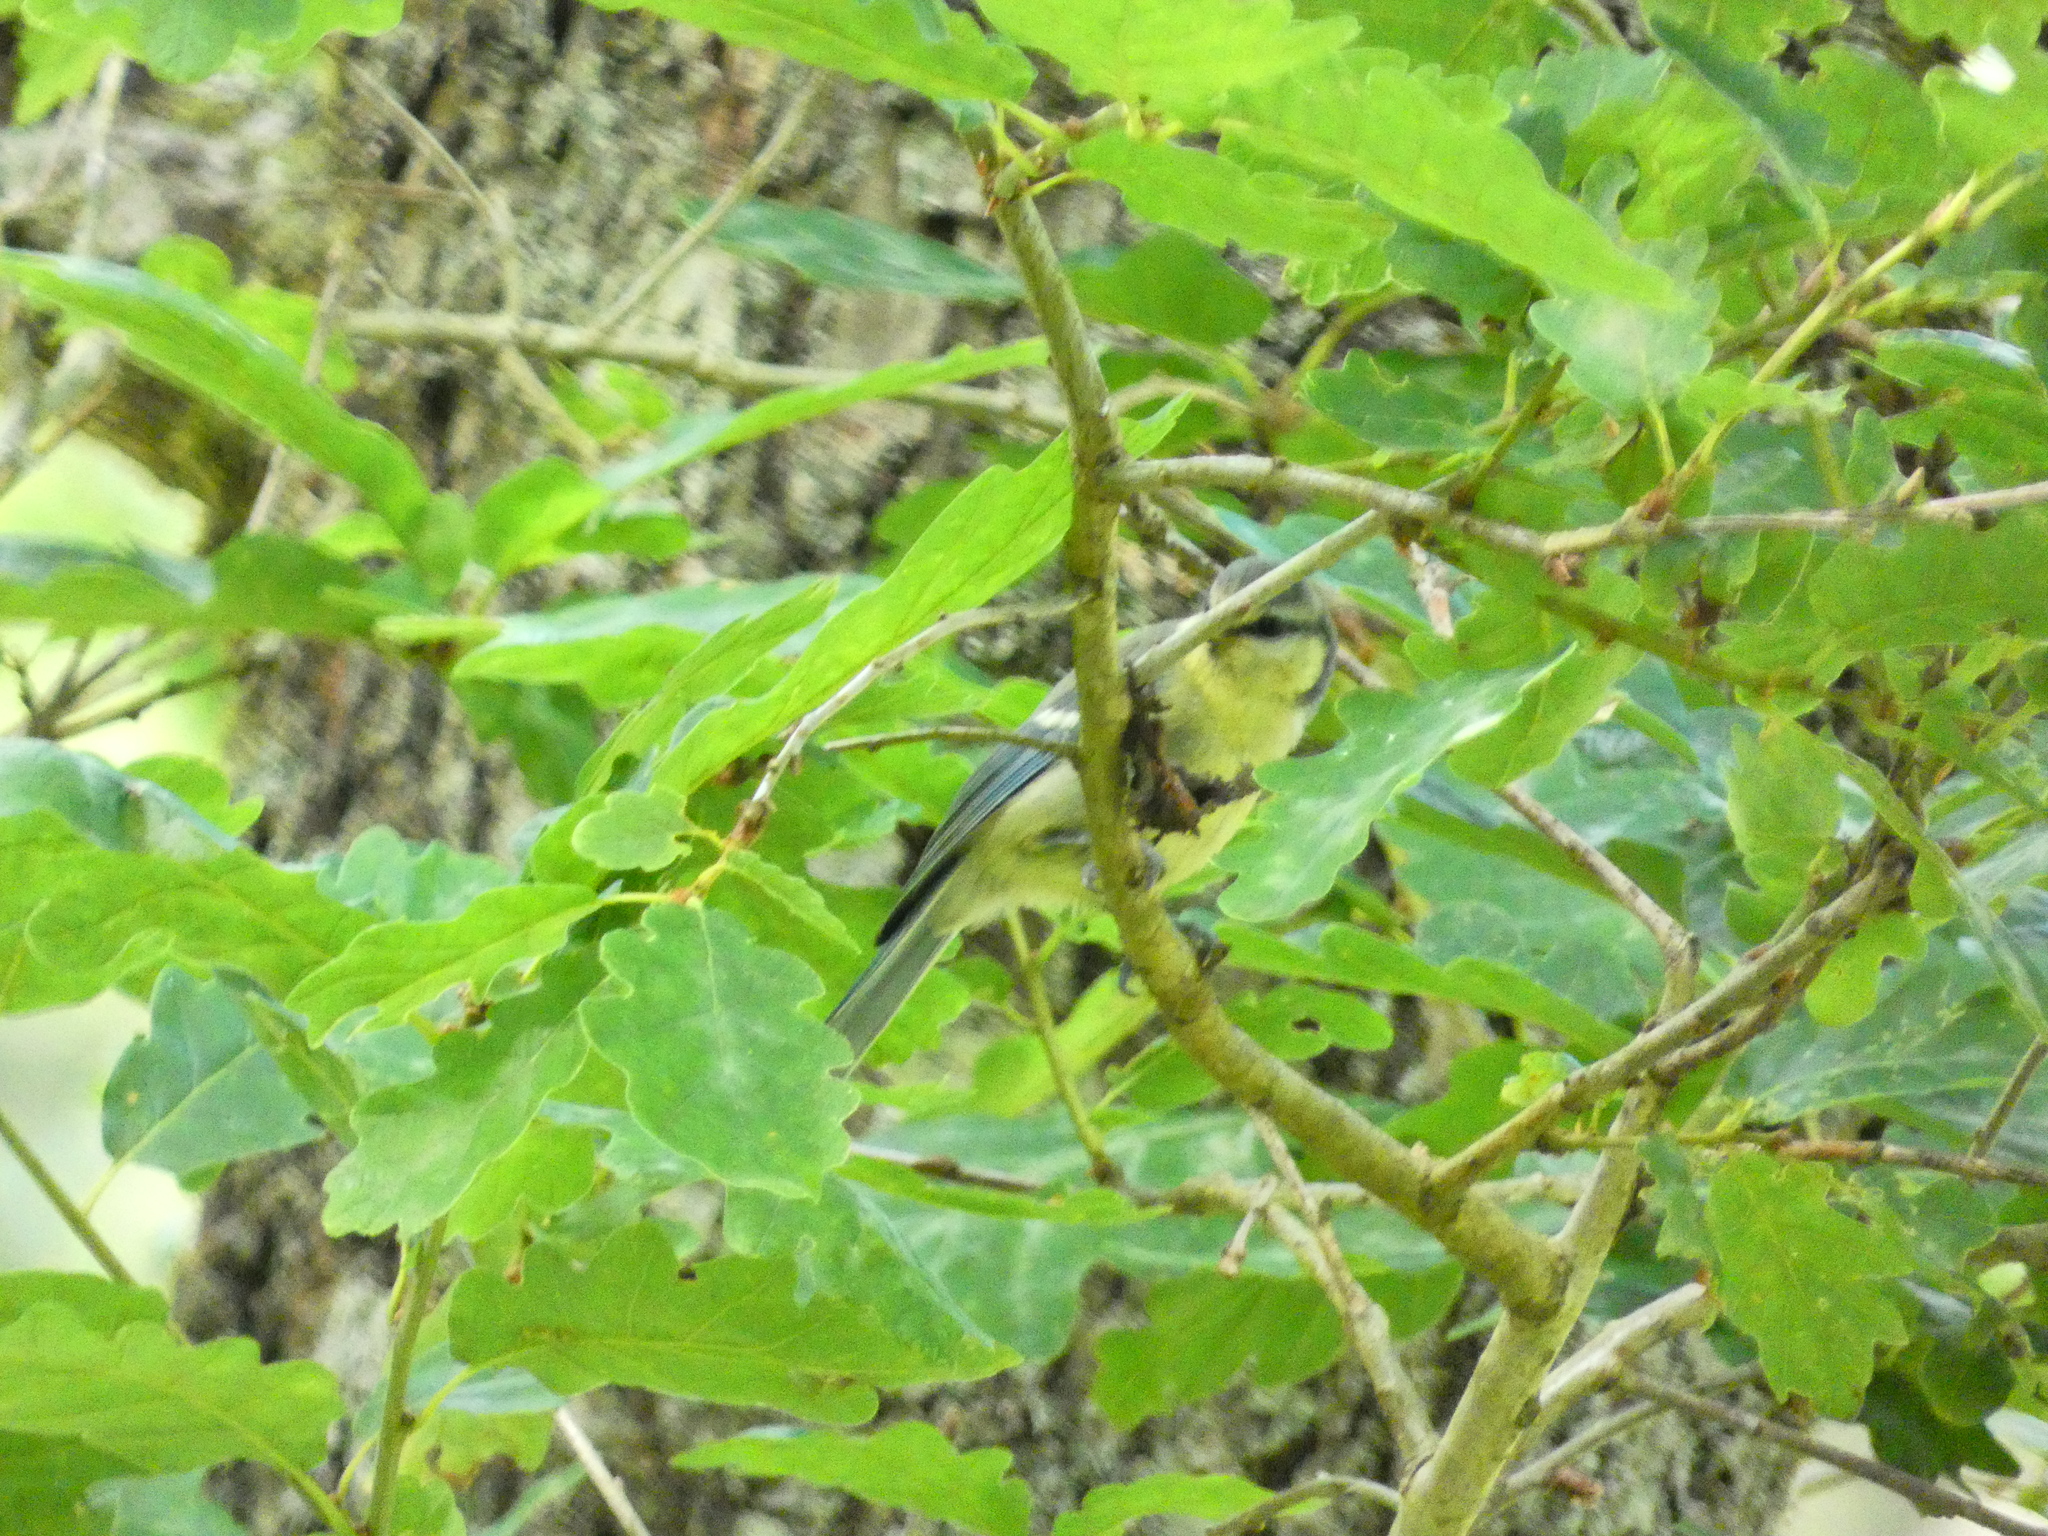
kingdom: Animalia
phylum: Chordata
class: Aves
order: Passeriformes
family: Paridae
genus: Cyanistes
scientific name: Cyanistes caeruleus
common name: Eurasian blue tit
